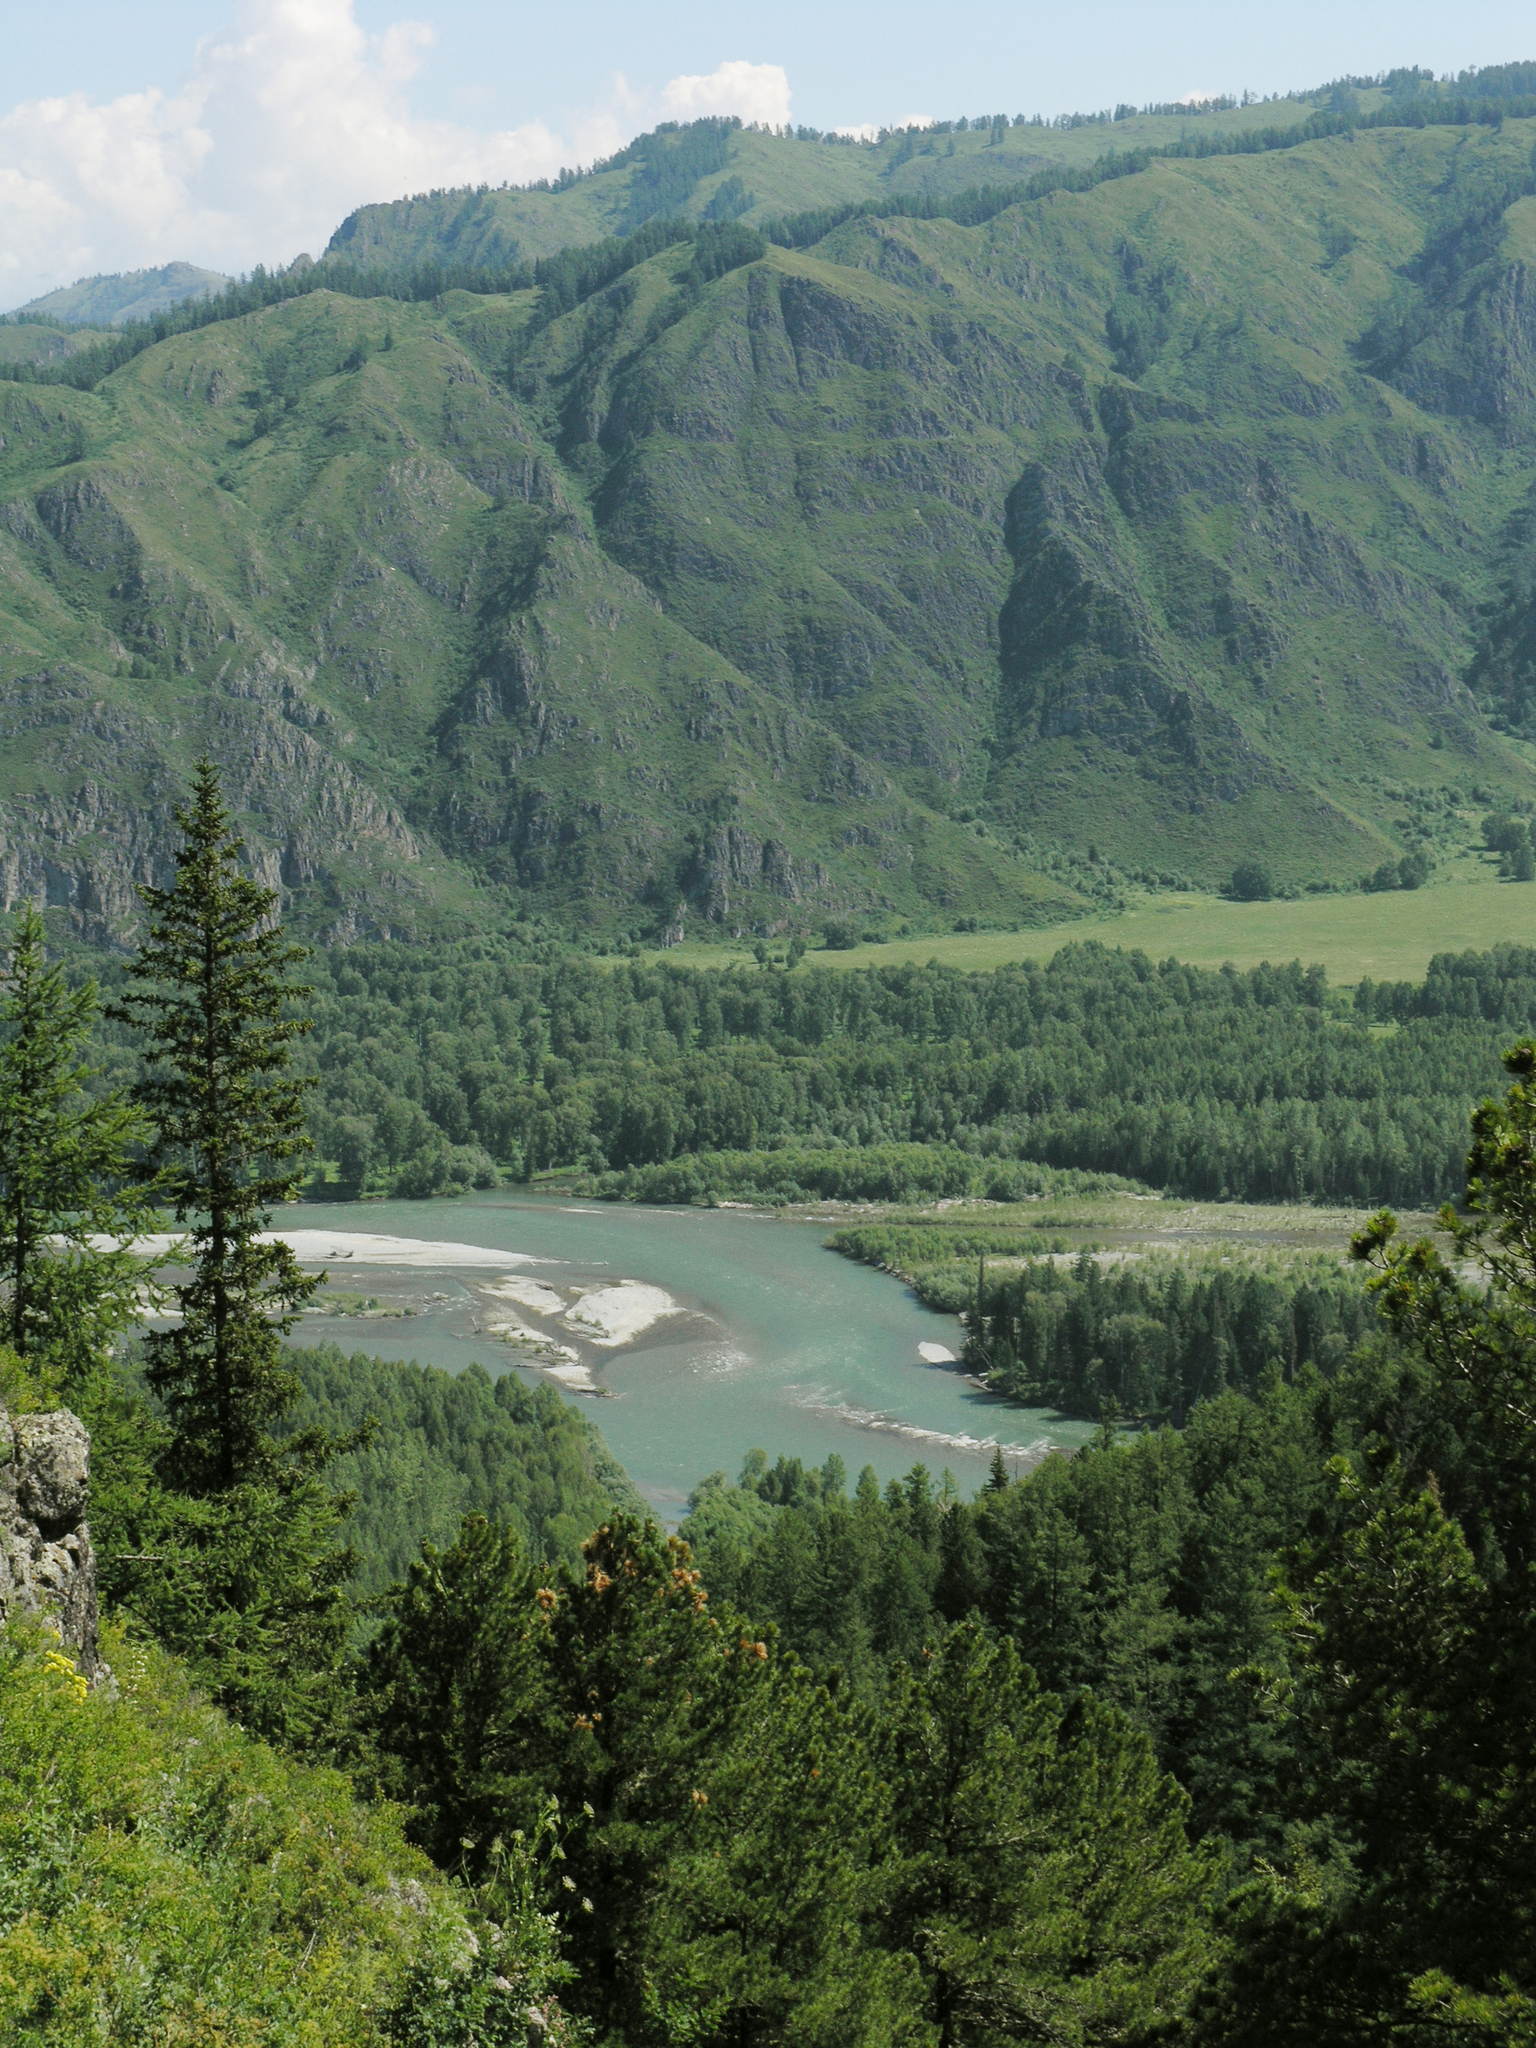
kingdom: Plantae
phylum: Tracheophyta
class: Pinopsida
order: Pinales
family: Pinaceae
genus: Pinus
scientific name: Pinus sibirica
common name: Siberian pine
